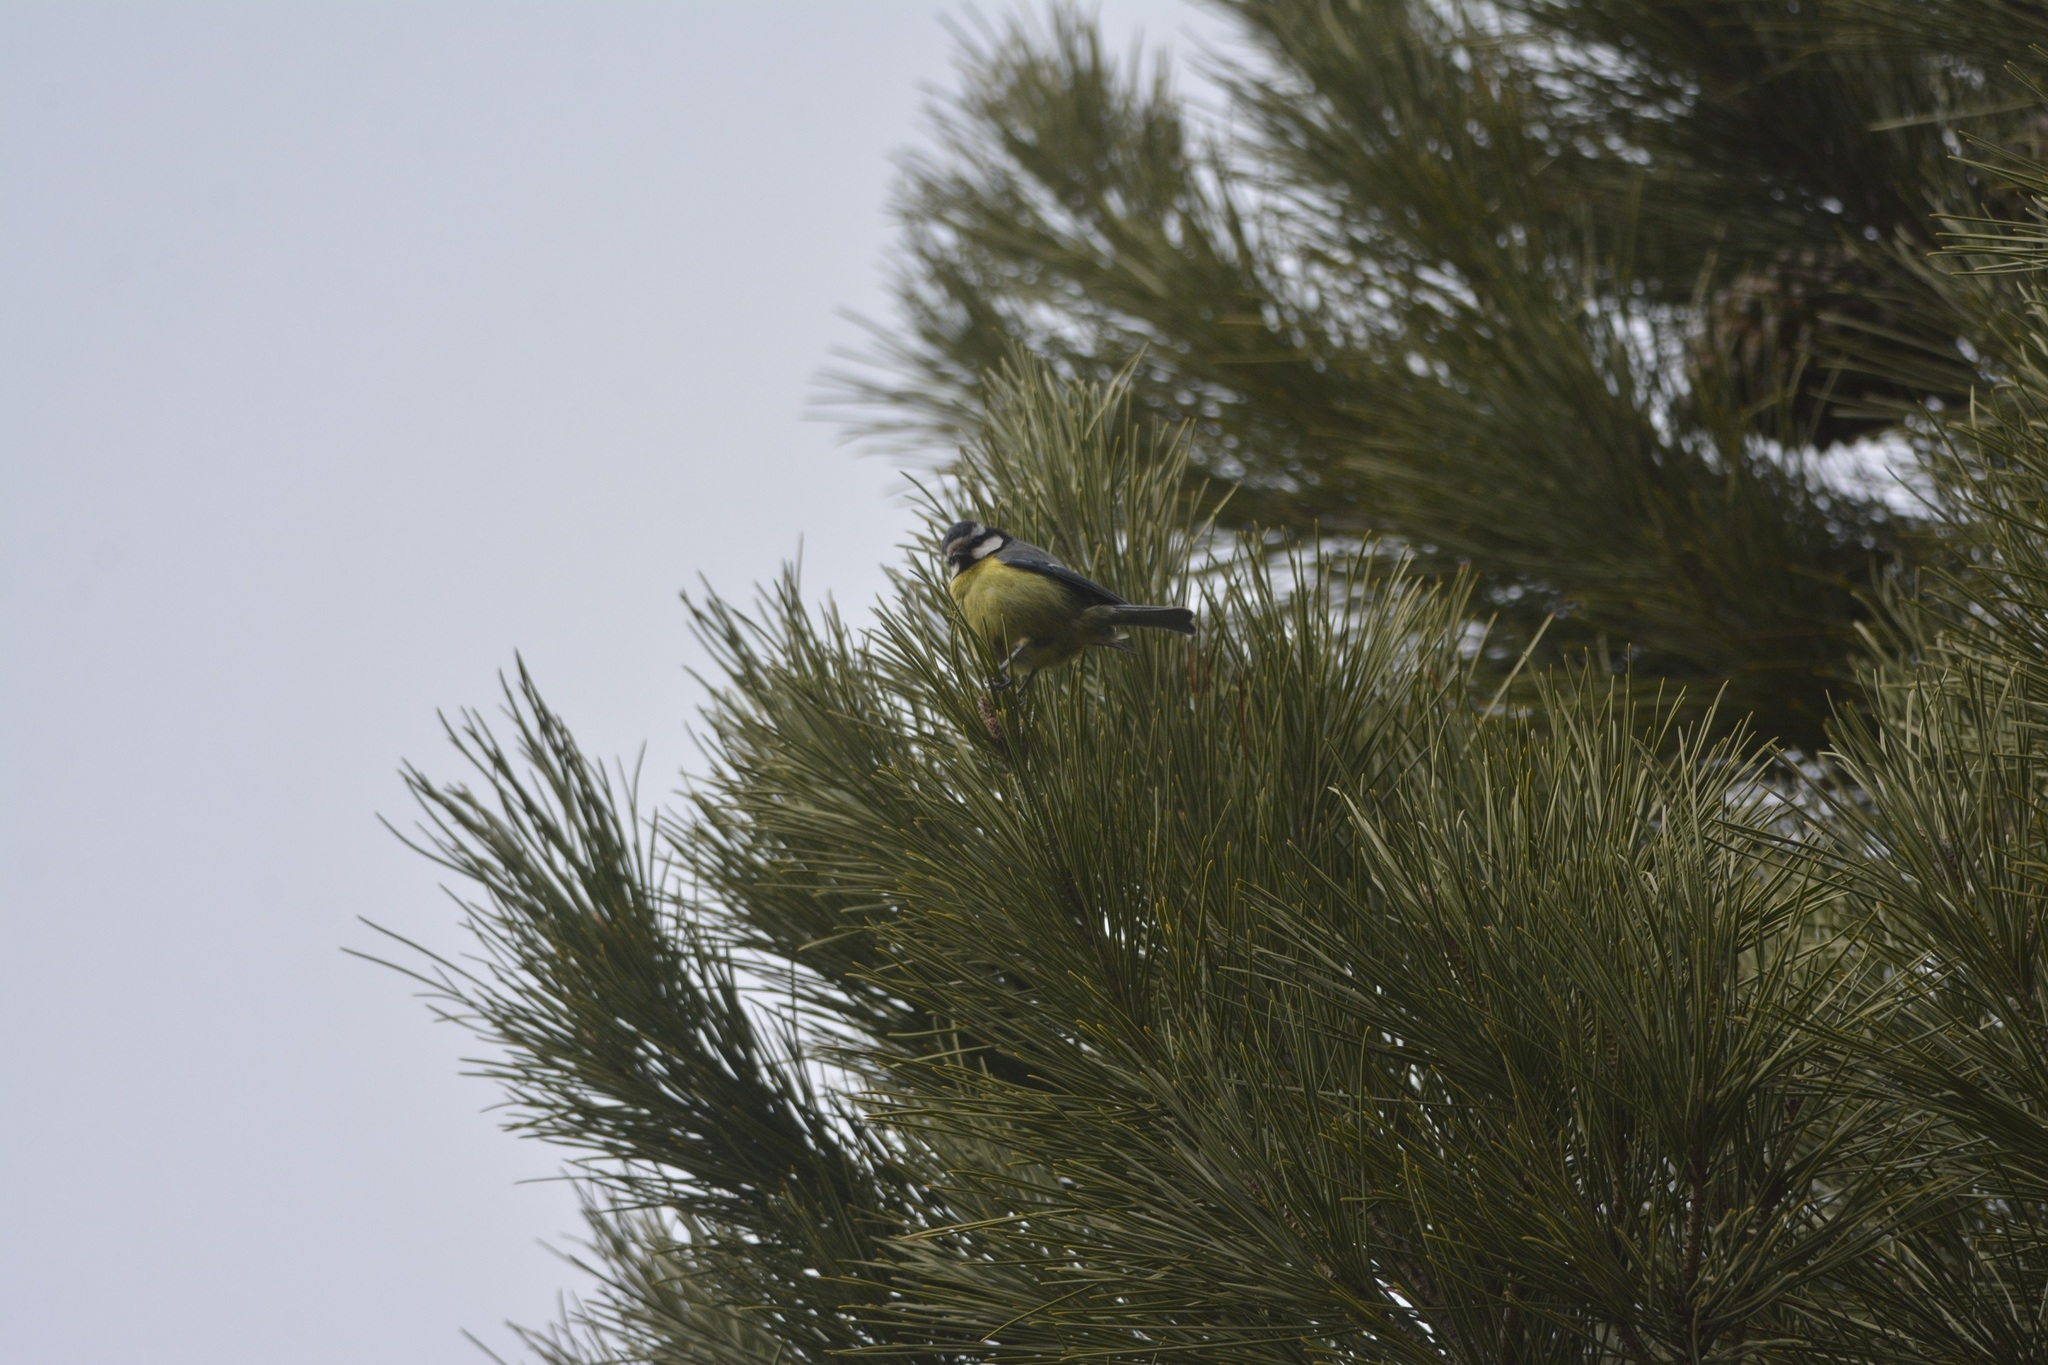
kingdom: Animalia
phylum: Chordata
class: Aves
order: Passeriformes
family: Paridae
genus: Cyanistes
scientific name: Cyanistes teneriffae
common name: African blue tit
